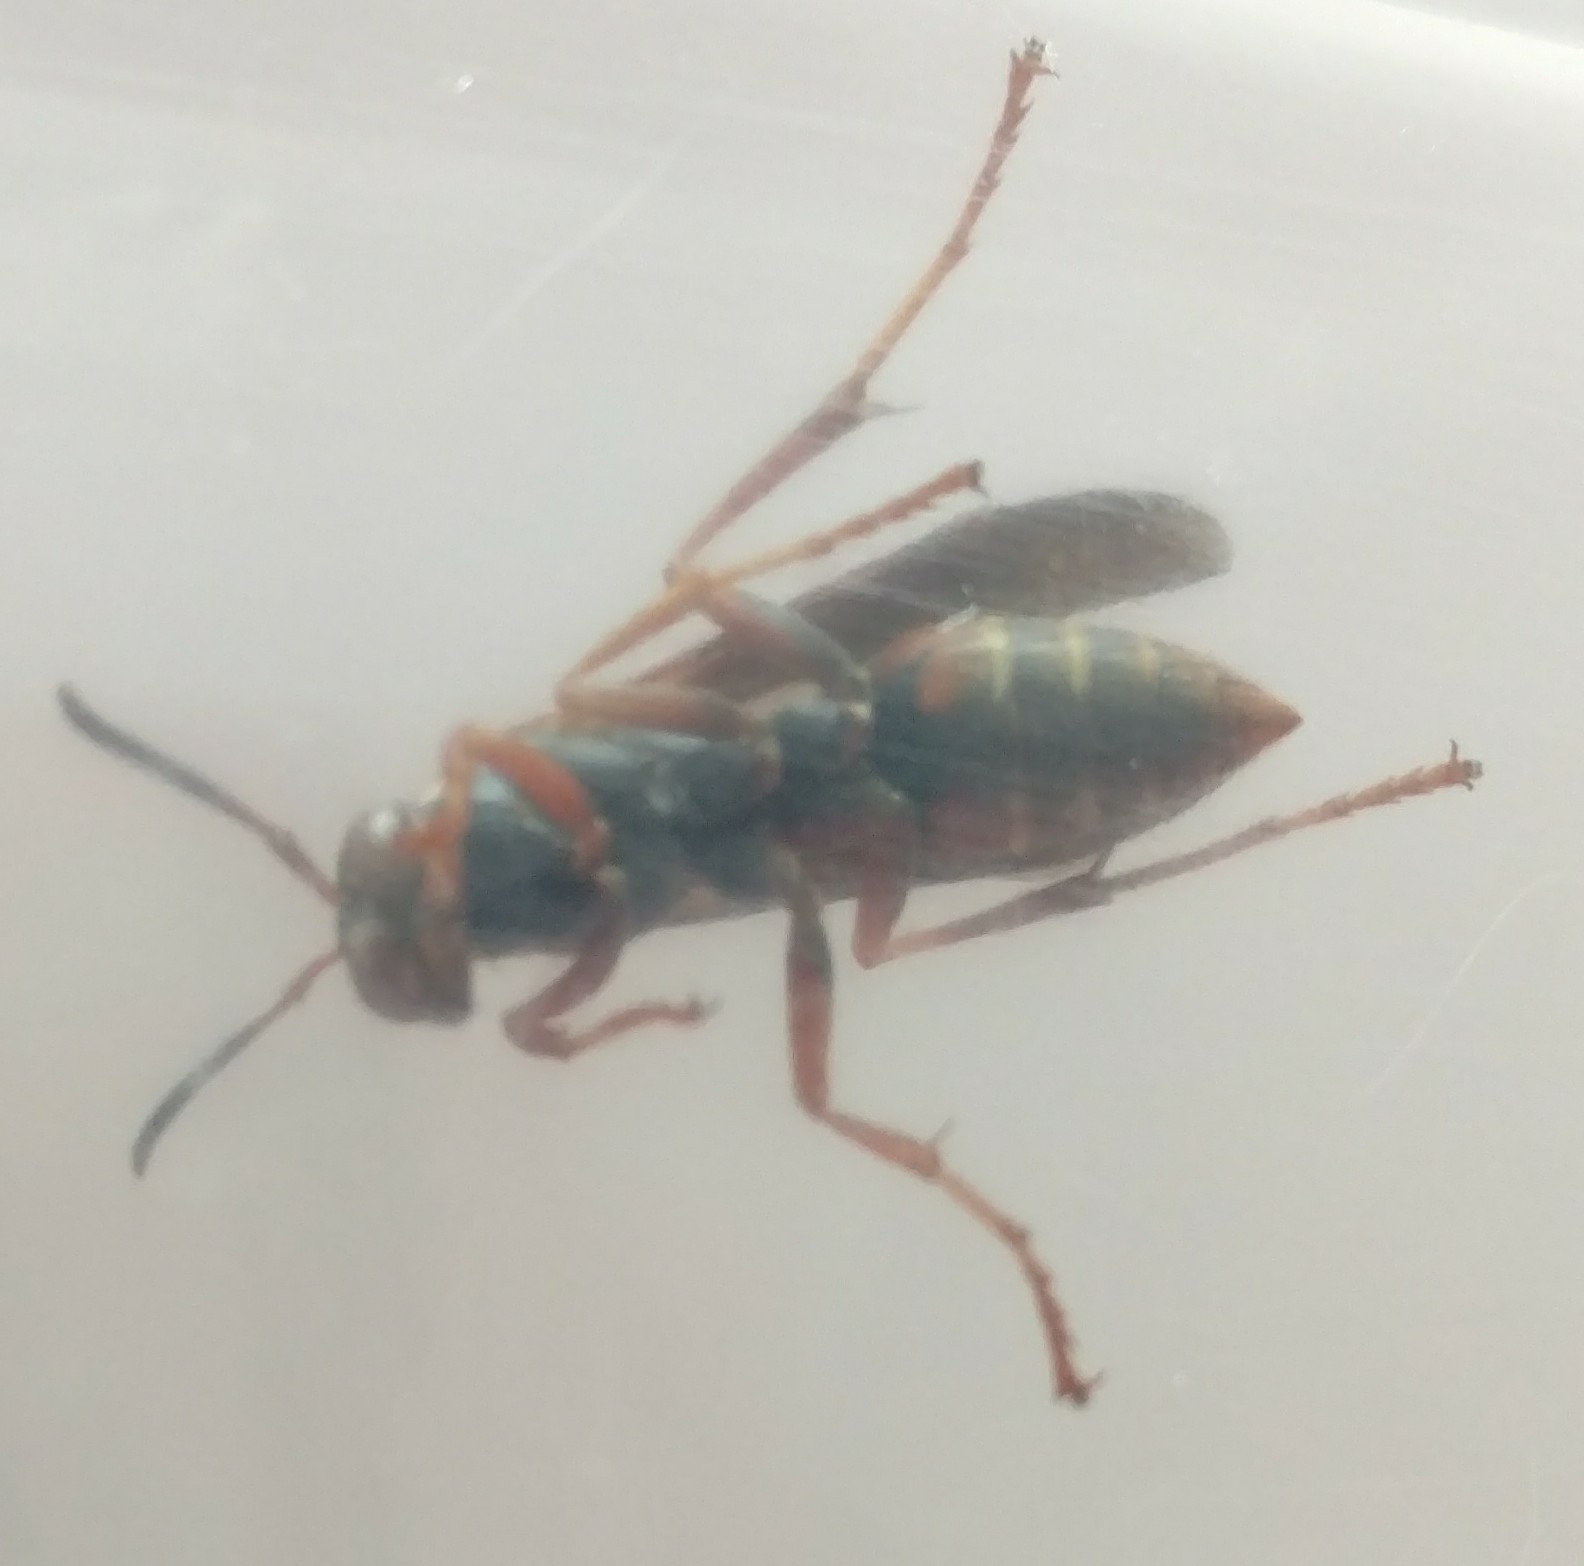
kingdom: Animalia
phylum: Arthropoda
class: Insecta
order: Hymenoptera
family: Eumenidae
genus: Polistes
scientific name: Polistes fuscatus
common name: Dark paper wasp
